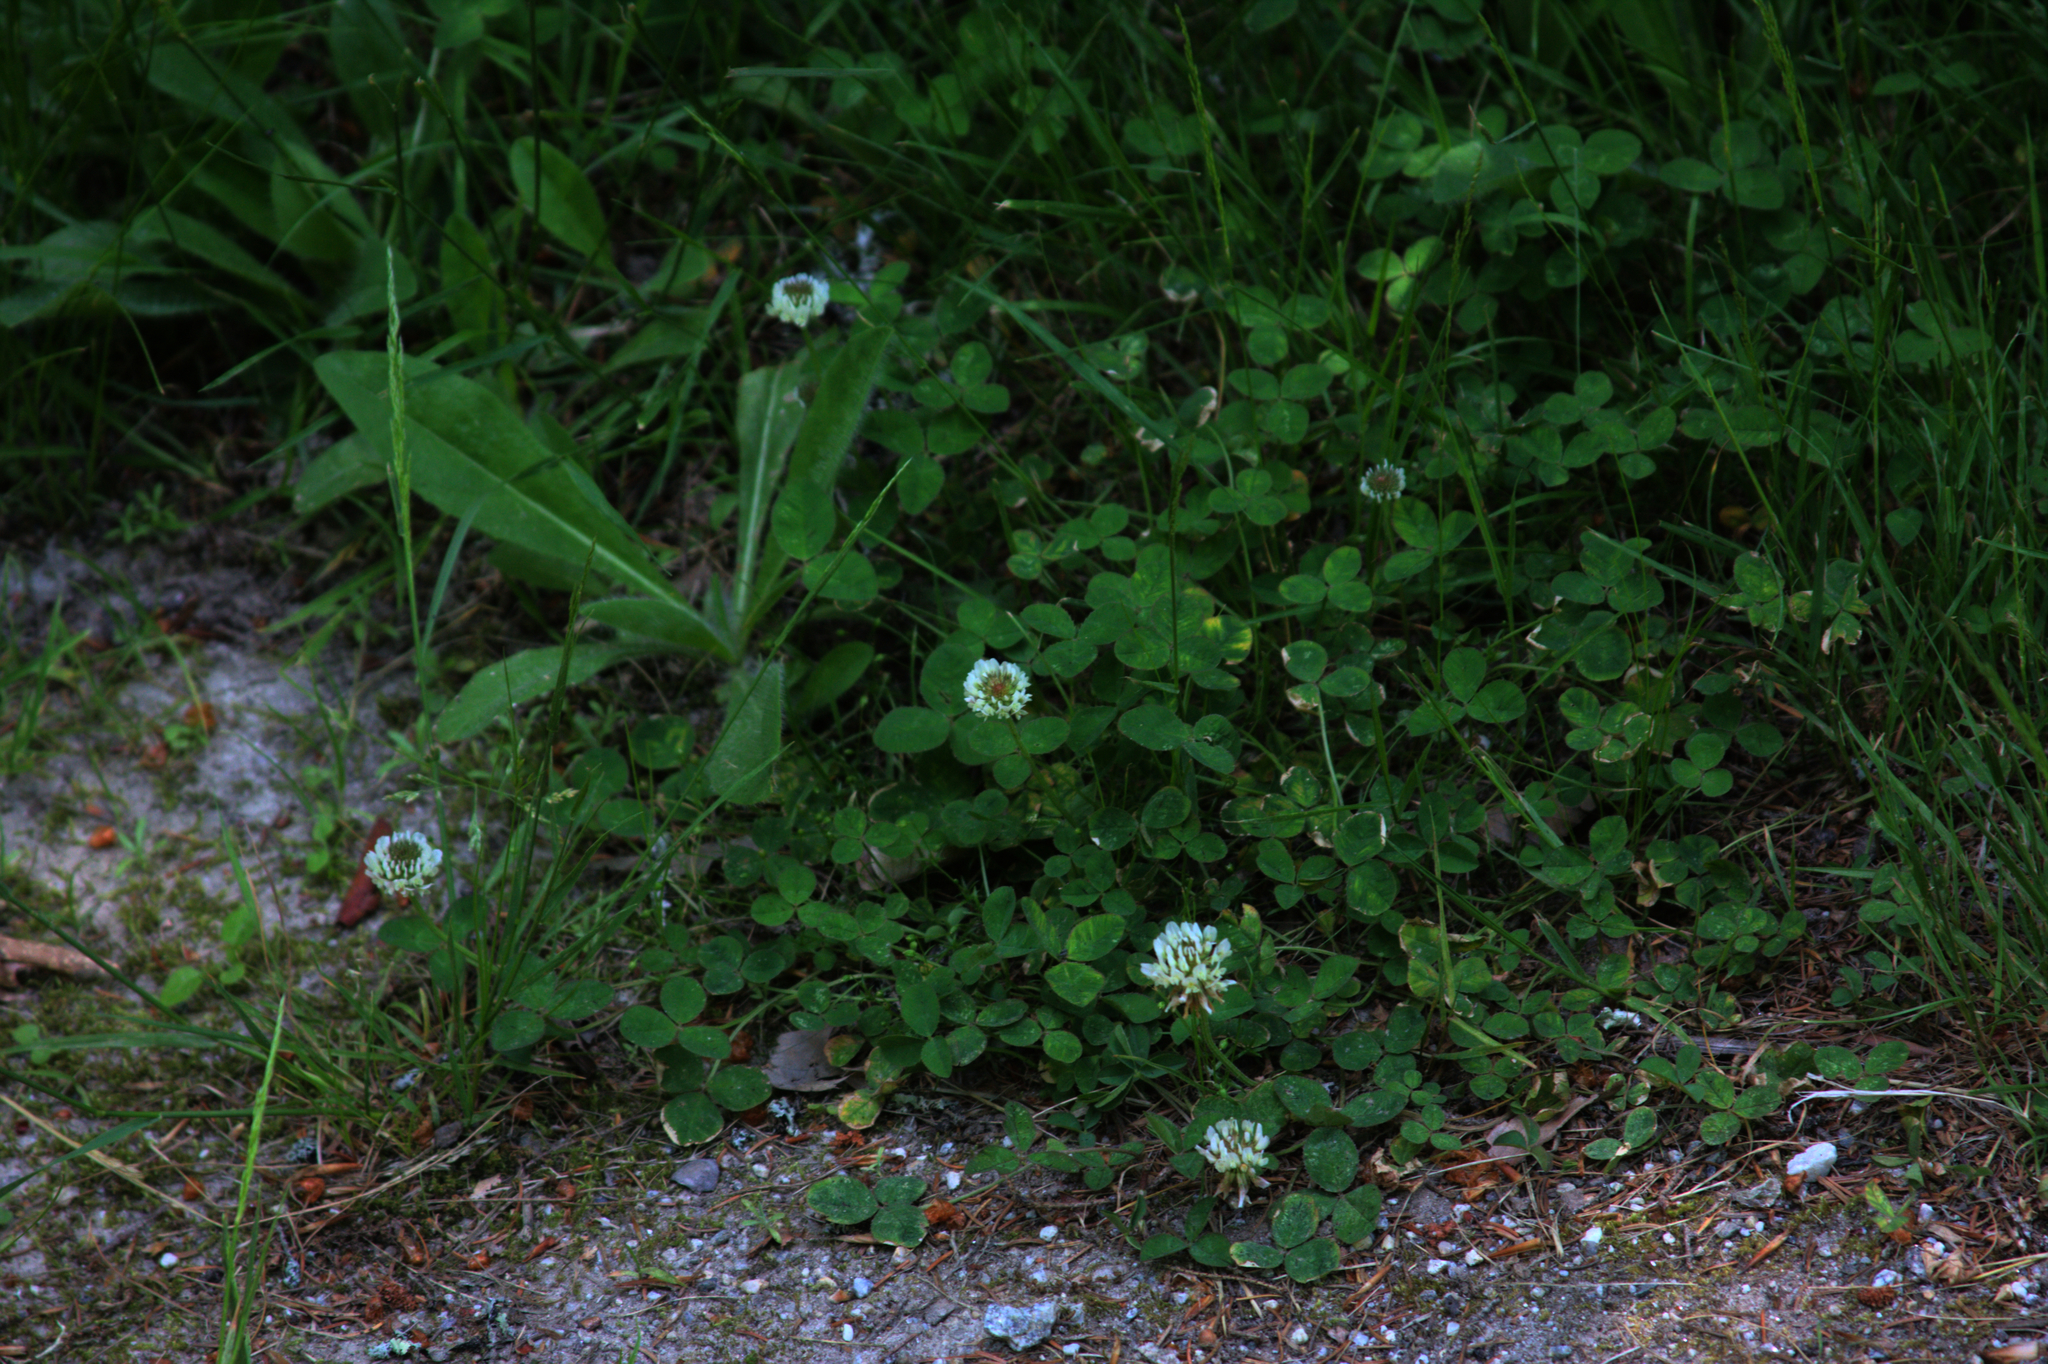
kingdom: Plantae
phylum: Tracheophyta
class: Magnoliopsida
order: Fabales
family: Fabaceae
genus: Trifolium
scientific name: Trifolium repens
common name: White clover
